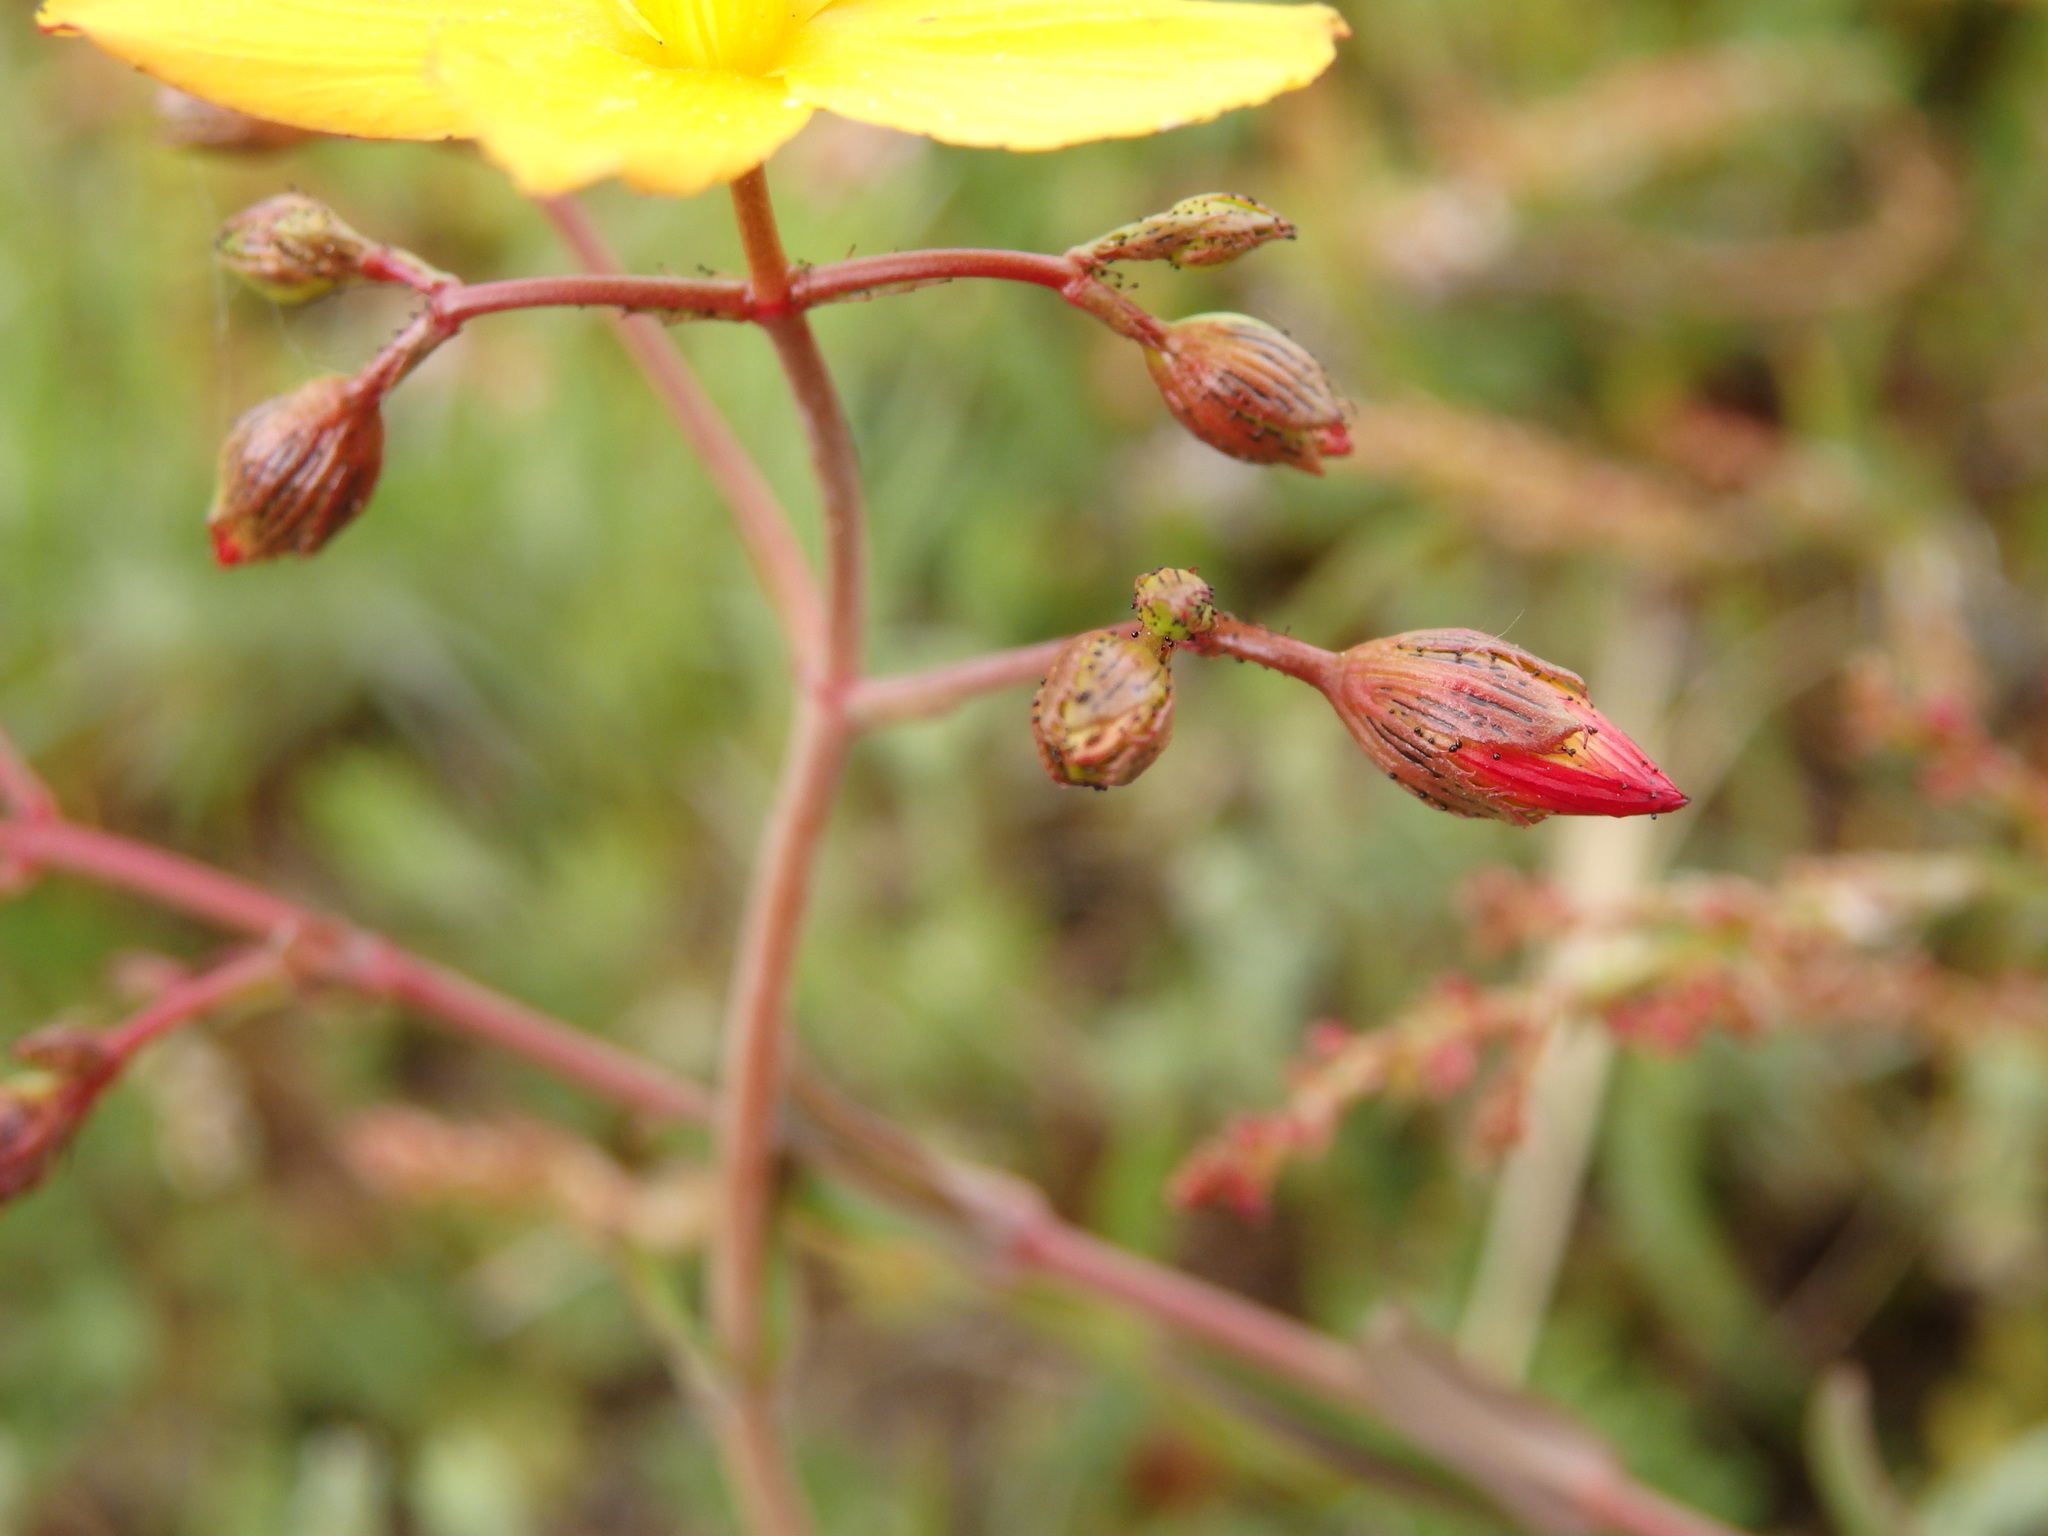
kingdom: Plantae
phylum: Tracheophyta
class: Magnoliopsida
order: Malpighiales
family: Hypericaceae
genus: Hypericum
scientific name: Hypericum linariifolium
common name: Toadflax-leaved st. john's-wort
